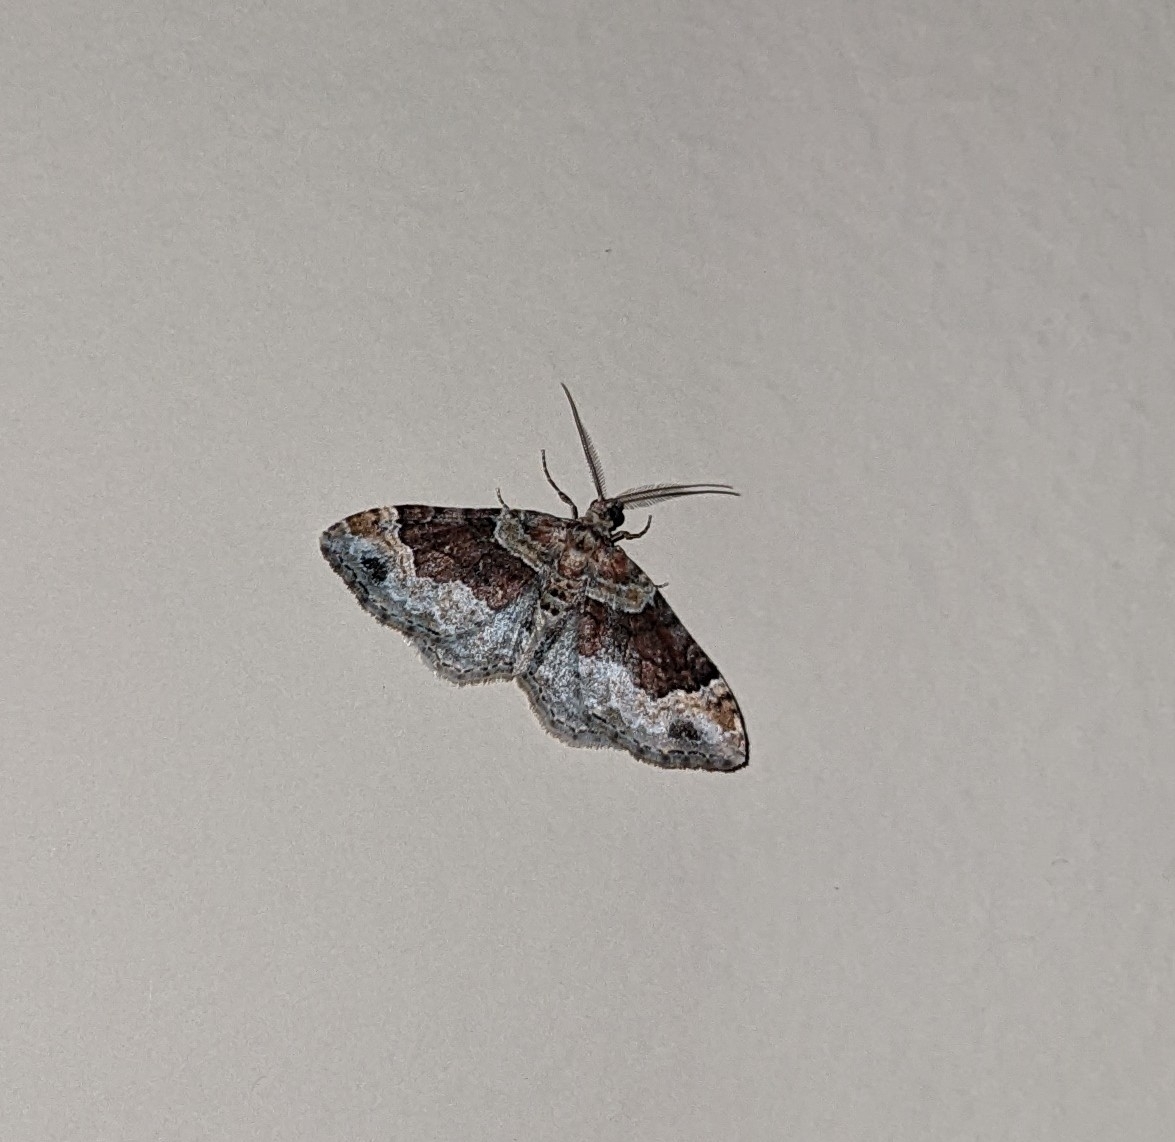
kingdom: Animalia
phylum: Arthropoda
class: Insecta
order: Lepidoptera
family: Geometridae
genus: Xanthorhoe
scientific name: Xanthorhoe ferrugata
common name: Dark-barred twin-spot carpet
